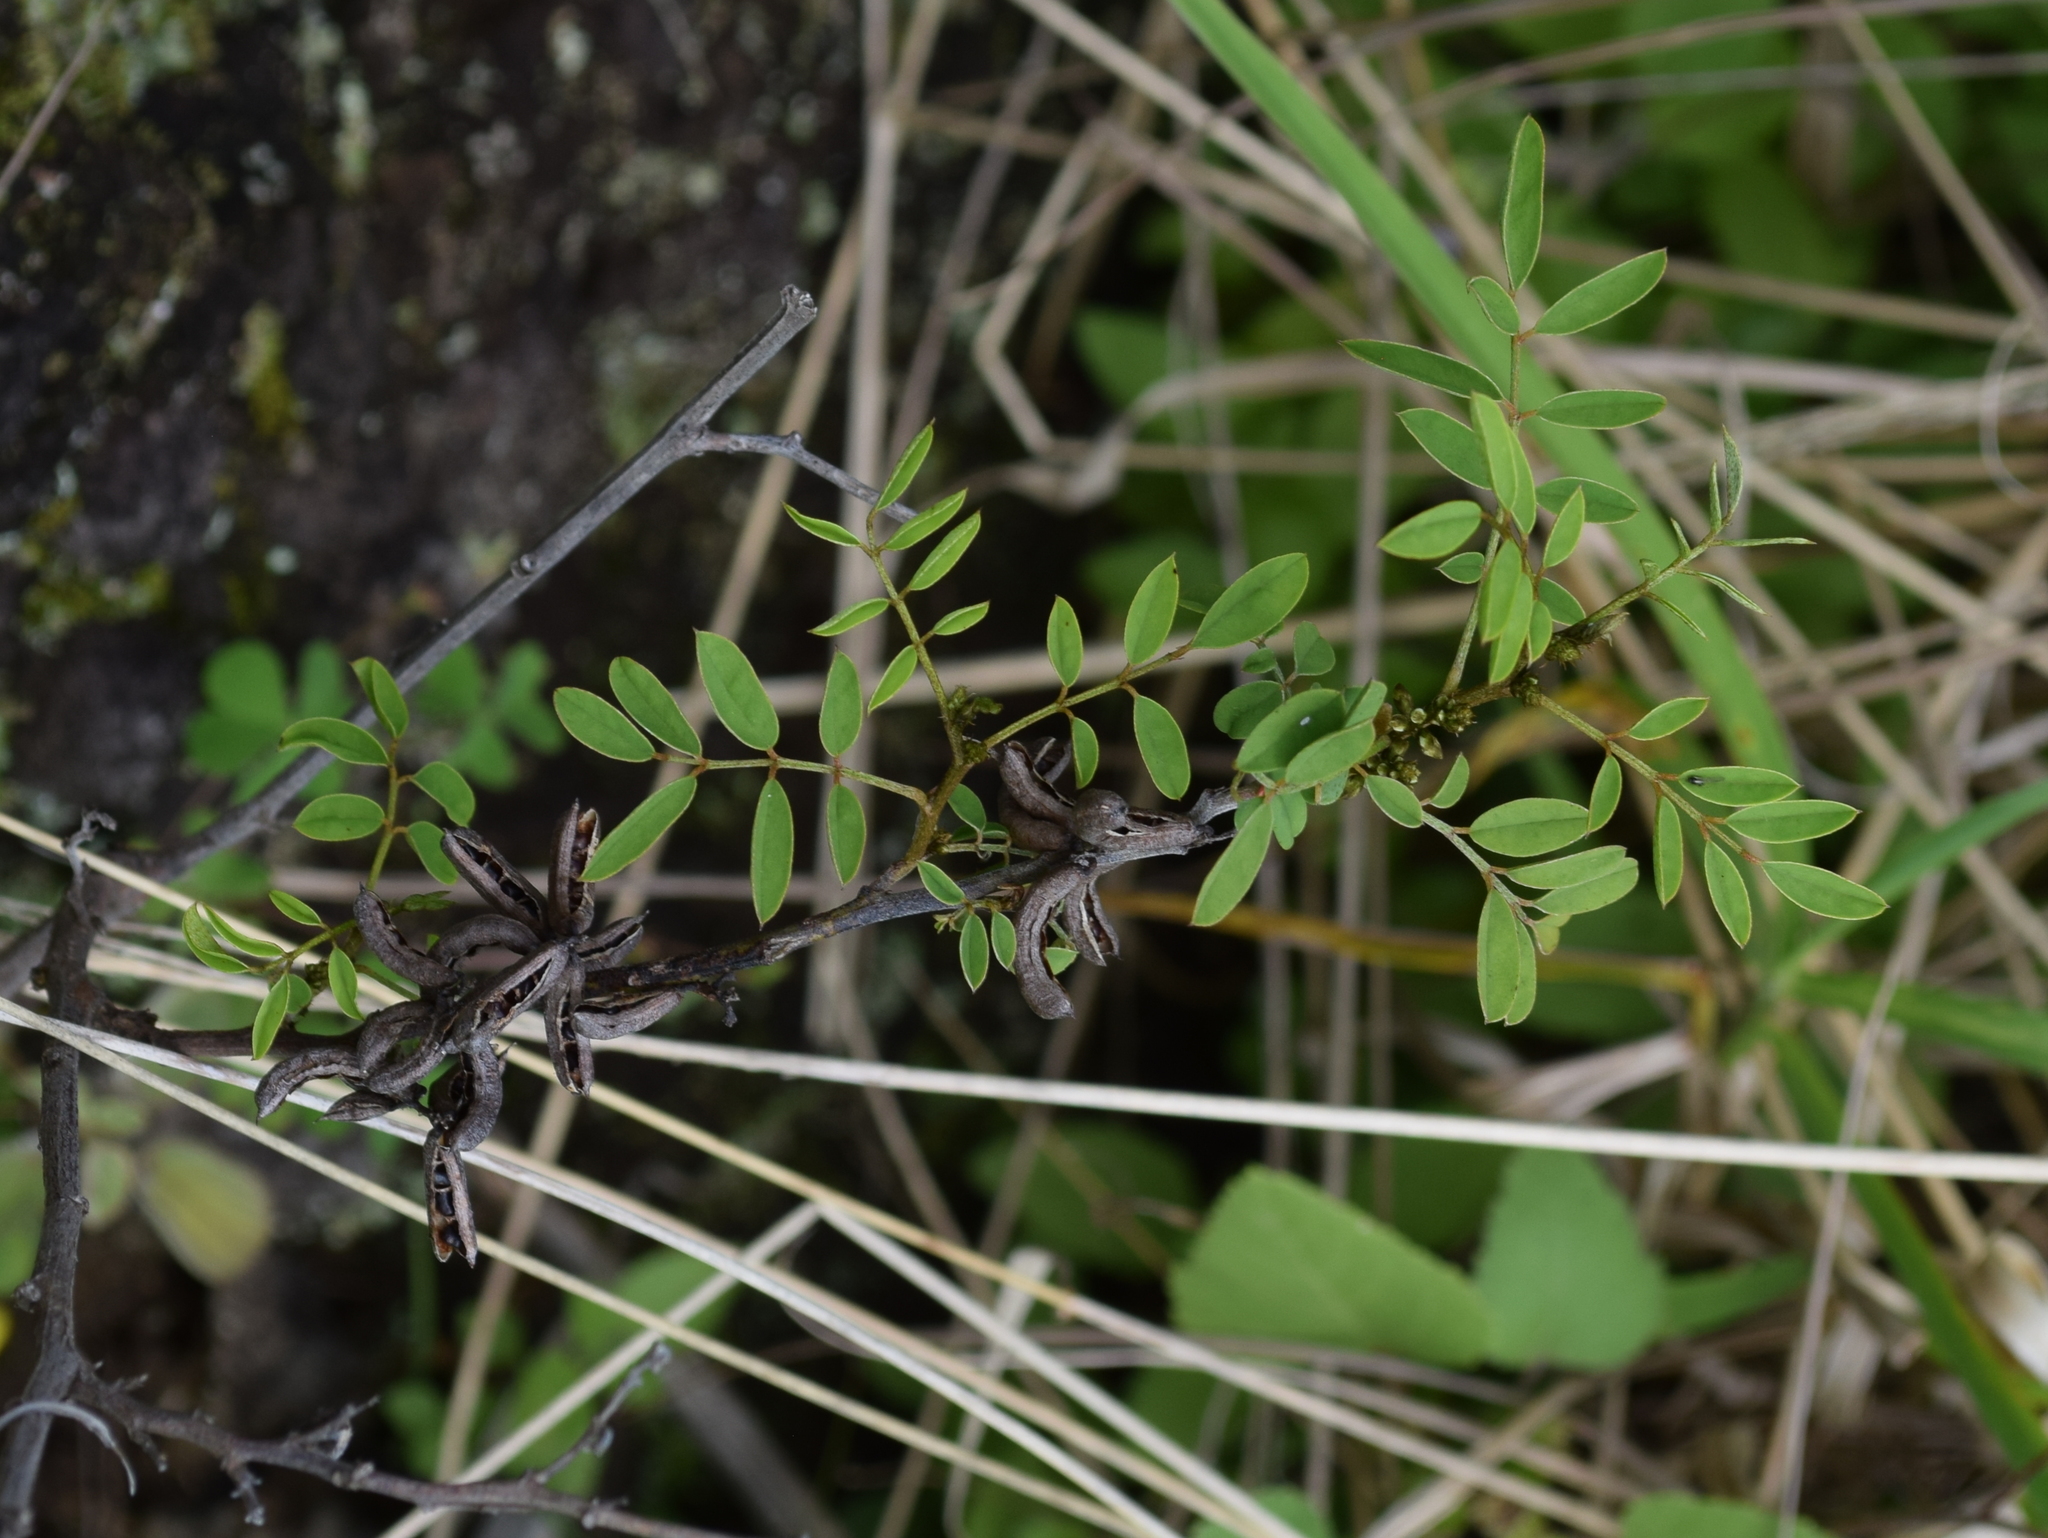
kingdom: Plantae
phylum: Tracheophyta
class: Magnoliopsida
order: Fabales
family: Fabaceae
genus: Indigofera
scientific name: Indigofera suffruticosa
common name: Anil de pasto
